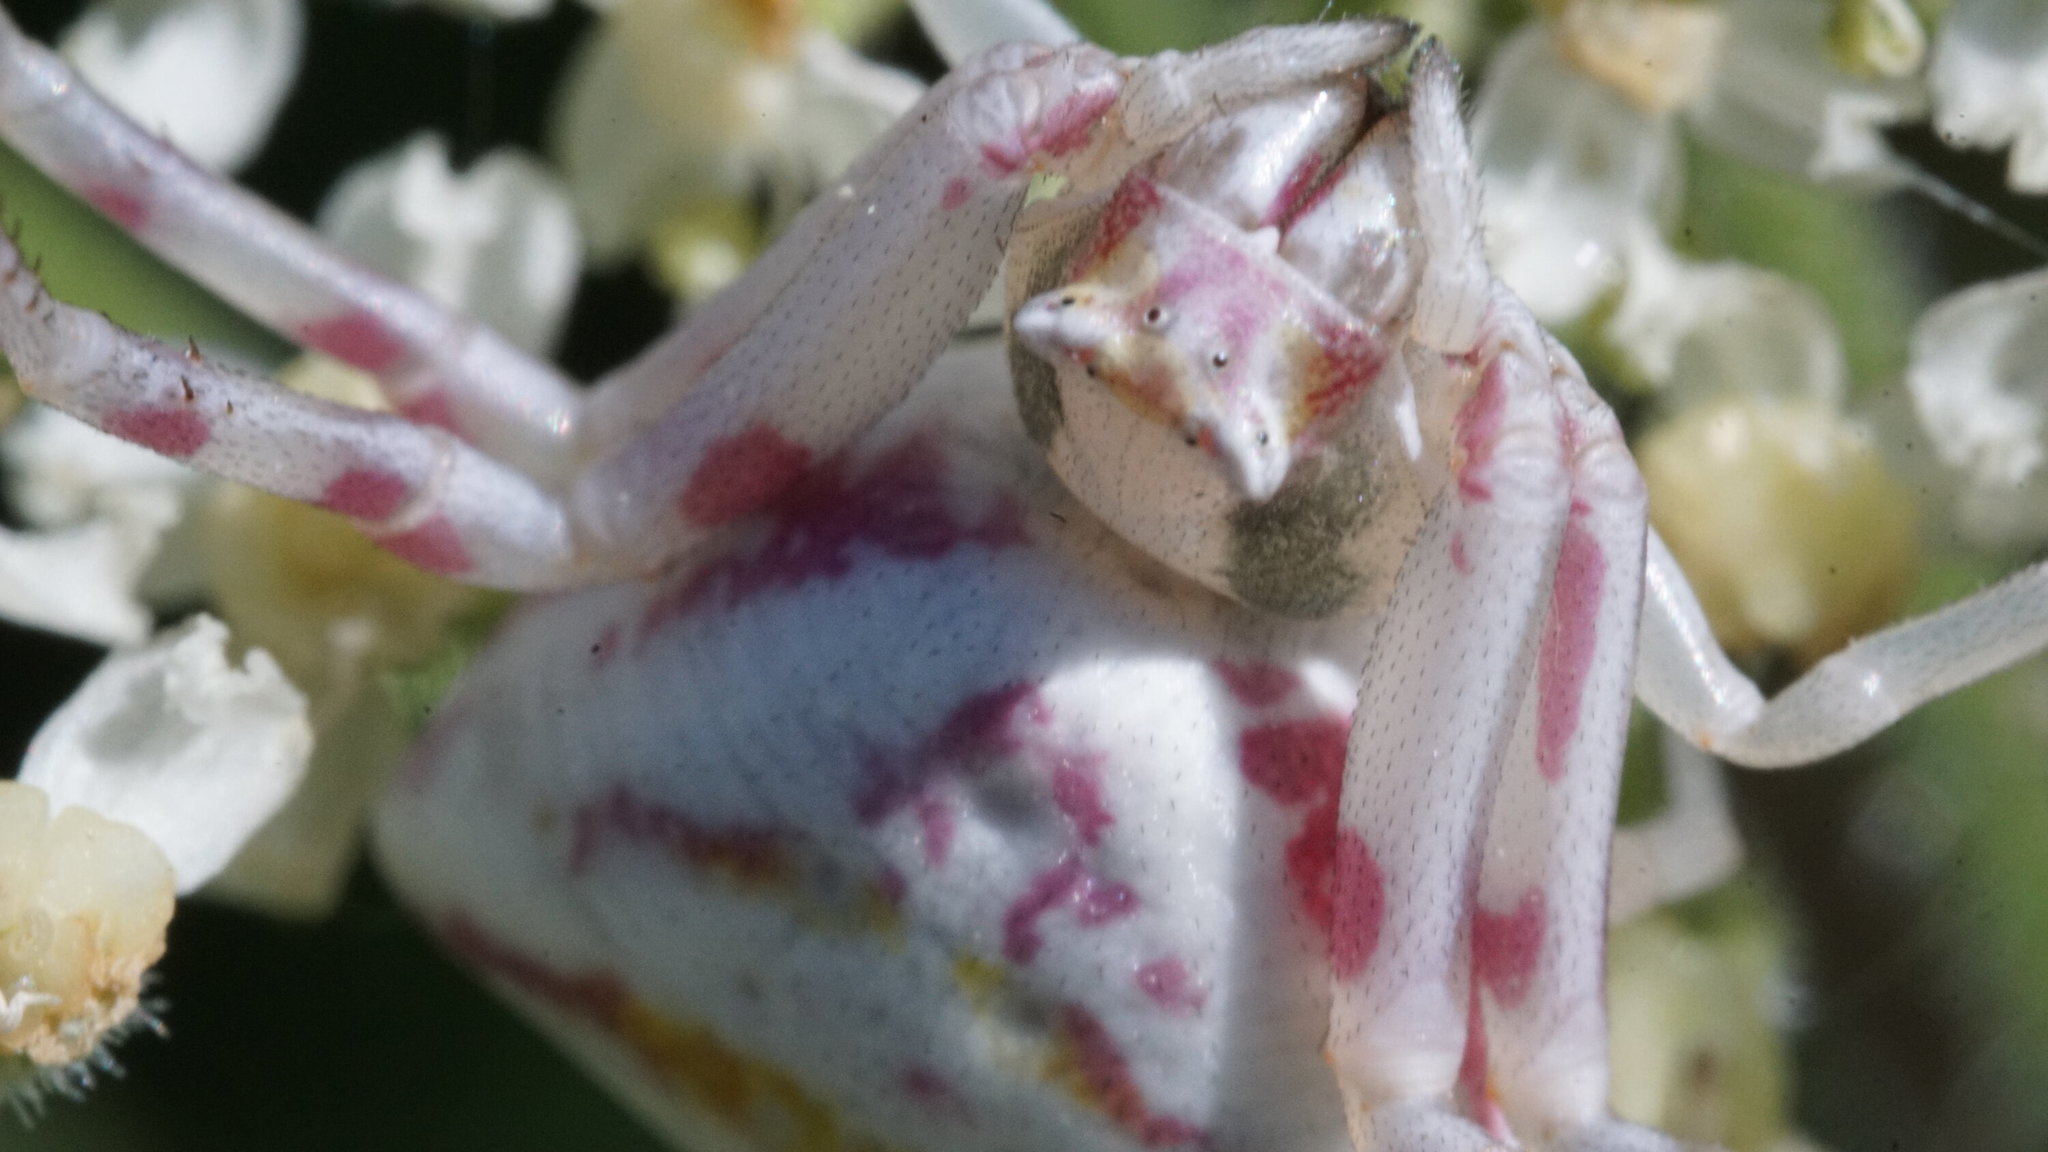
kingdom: Animalia
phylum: Arthropoda
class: Arachnida
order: Araneae
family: Thomisidae
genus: Thomisus
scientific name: Thomisus onustus
